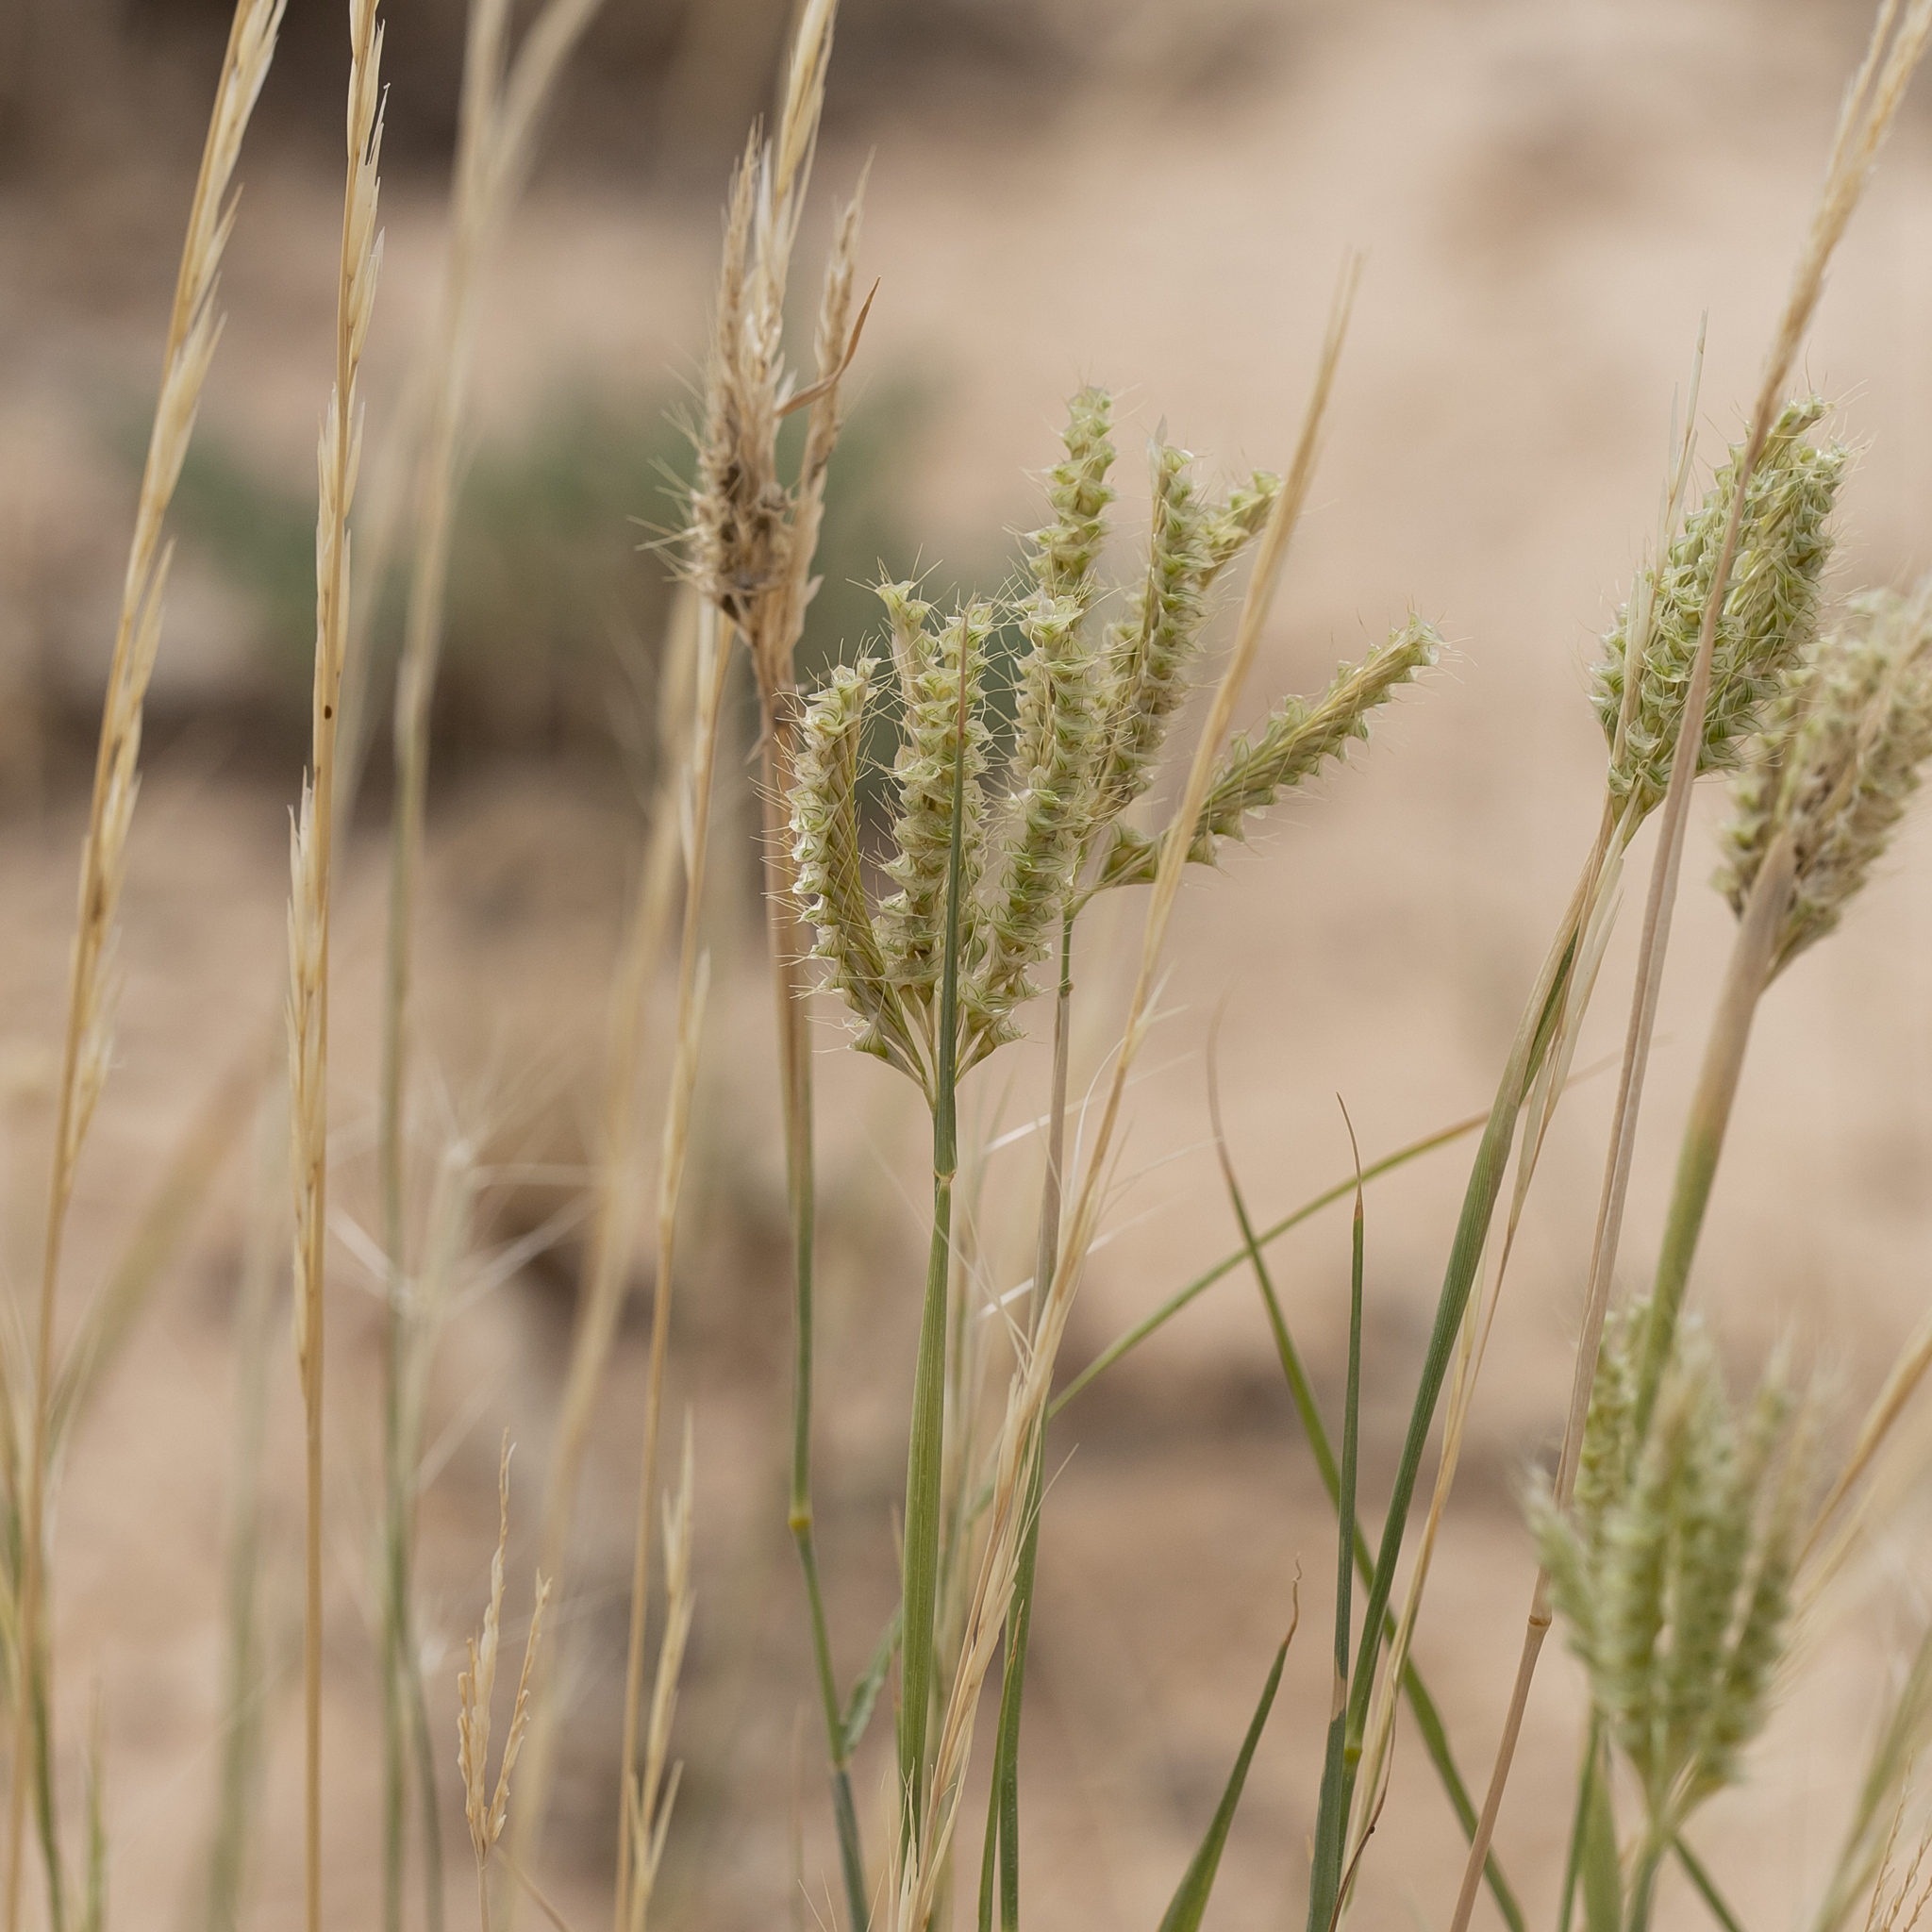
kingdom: Plantae
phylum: Tracheophyta
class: Liliopsida
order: Poales
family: Poaceae
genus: Oxychloris
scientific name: Oxychloris scariosa
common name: Winged windmill grass
